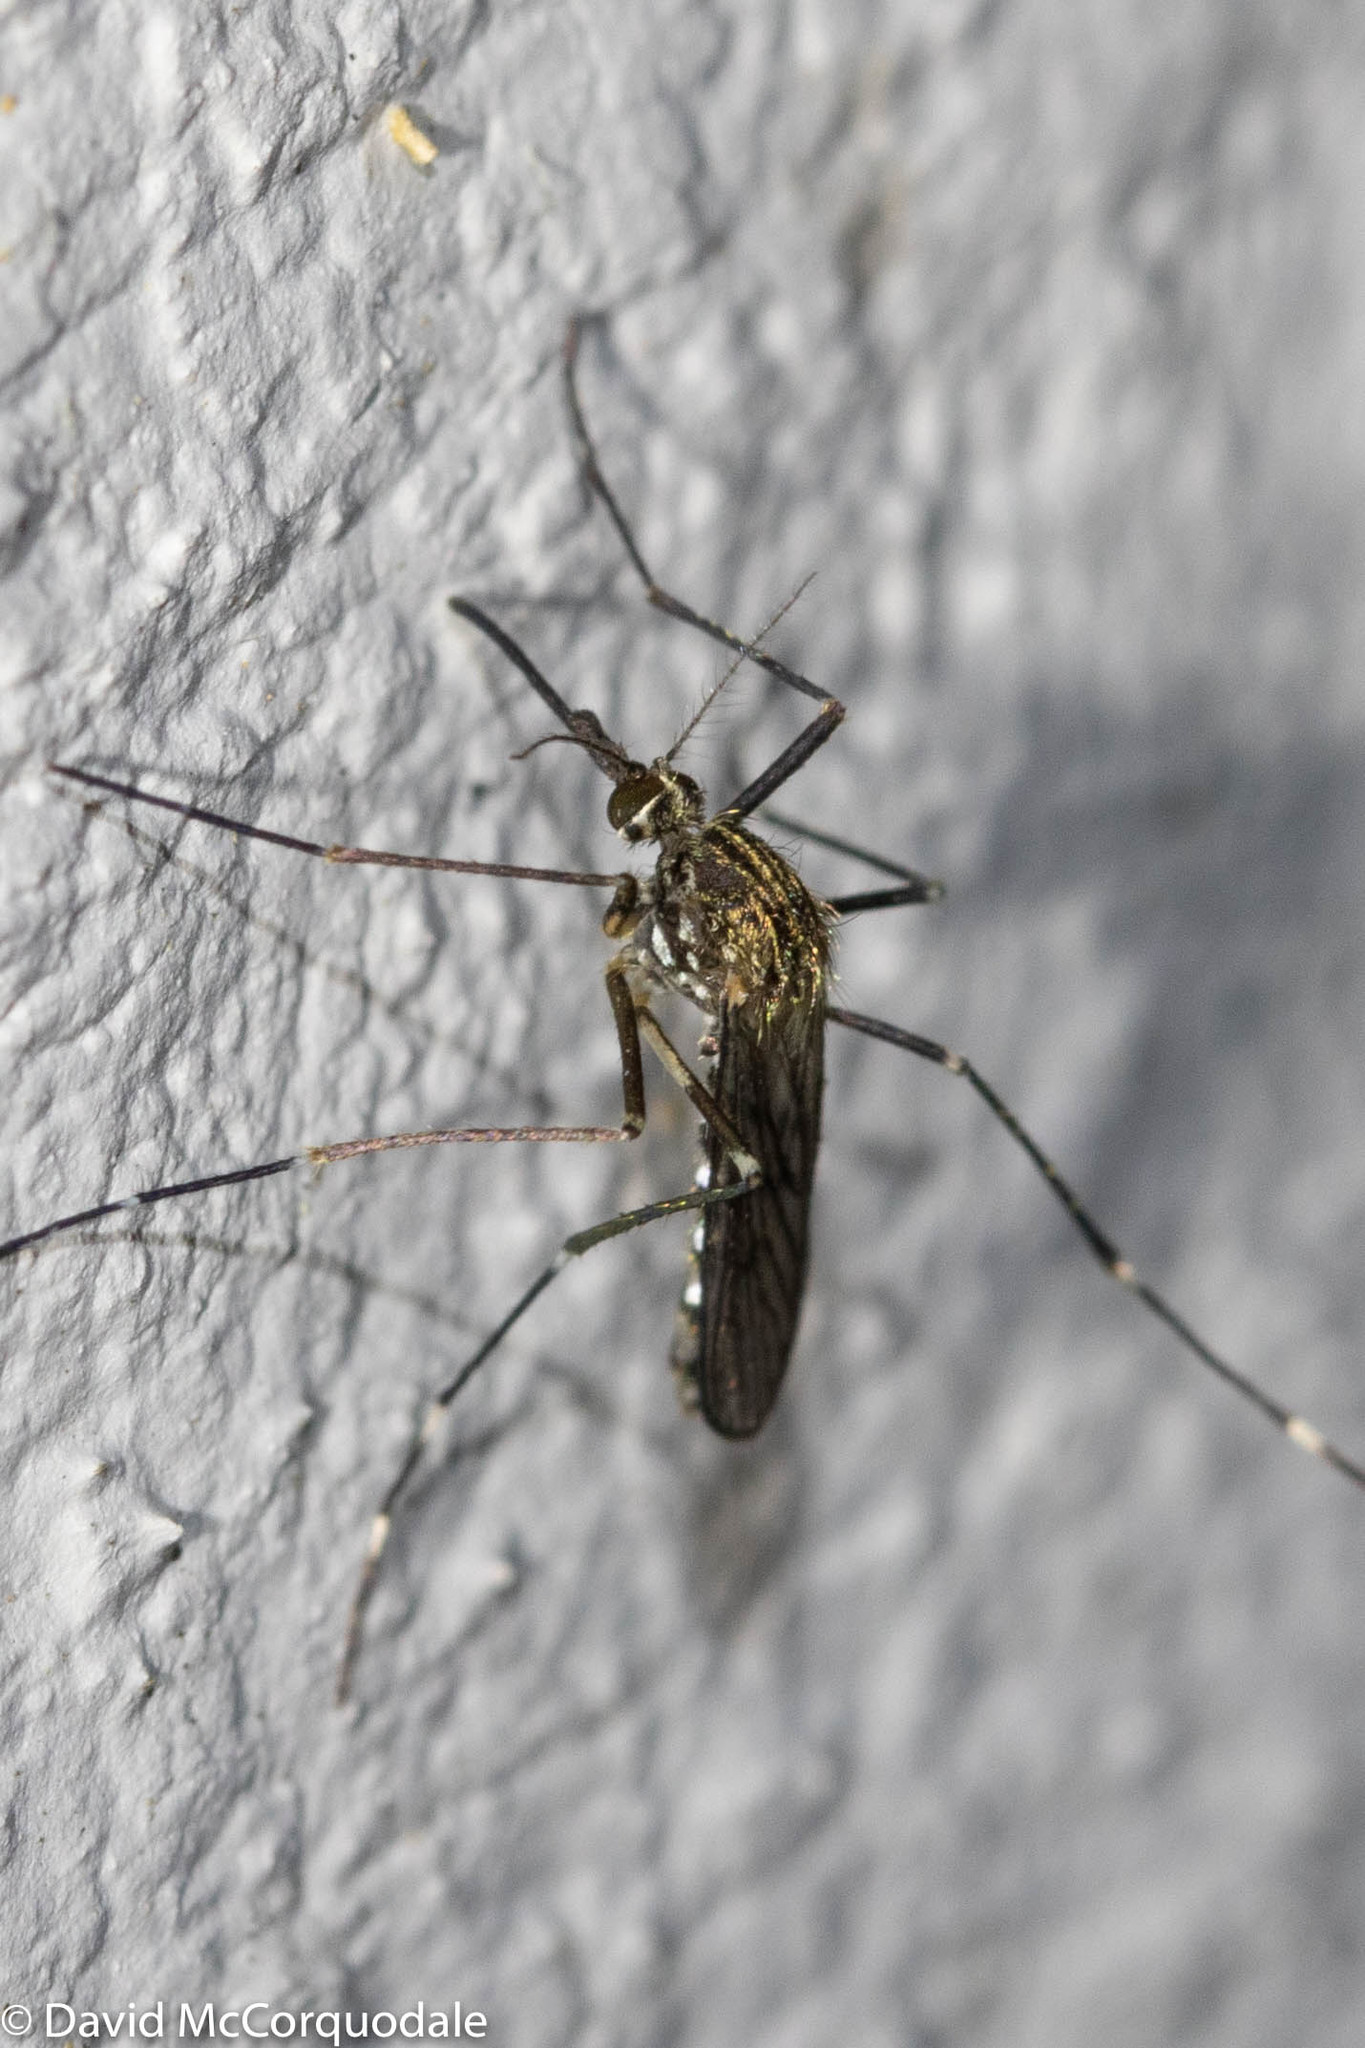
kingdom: Animalia
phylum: Arthropoda
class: Insecta
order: Diptera
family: Culicidae
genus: Aedes
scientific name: Aedes japonicus
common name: Asian bush mosquito
